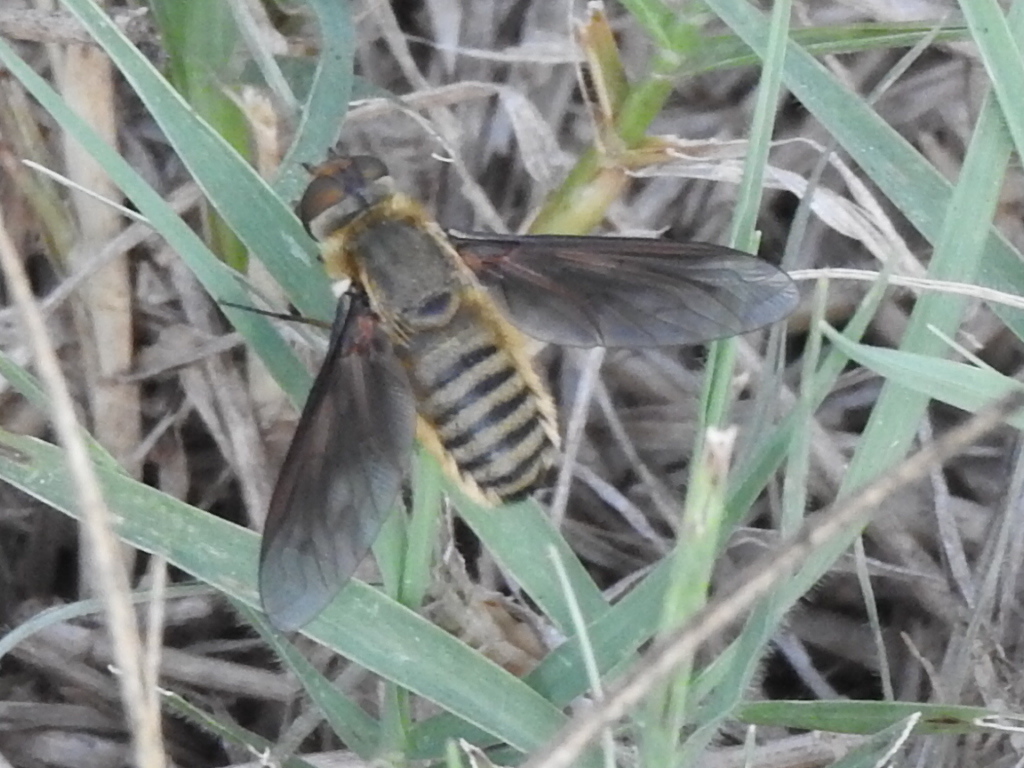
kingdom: Animalia
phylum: Arthropoda
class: Insecta
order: Diptera
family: Bombyliidae
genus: Poecilanthrax
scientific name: Poecilanthrax lucifer
